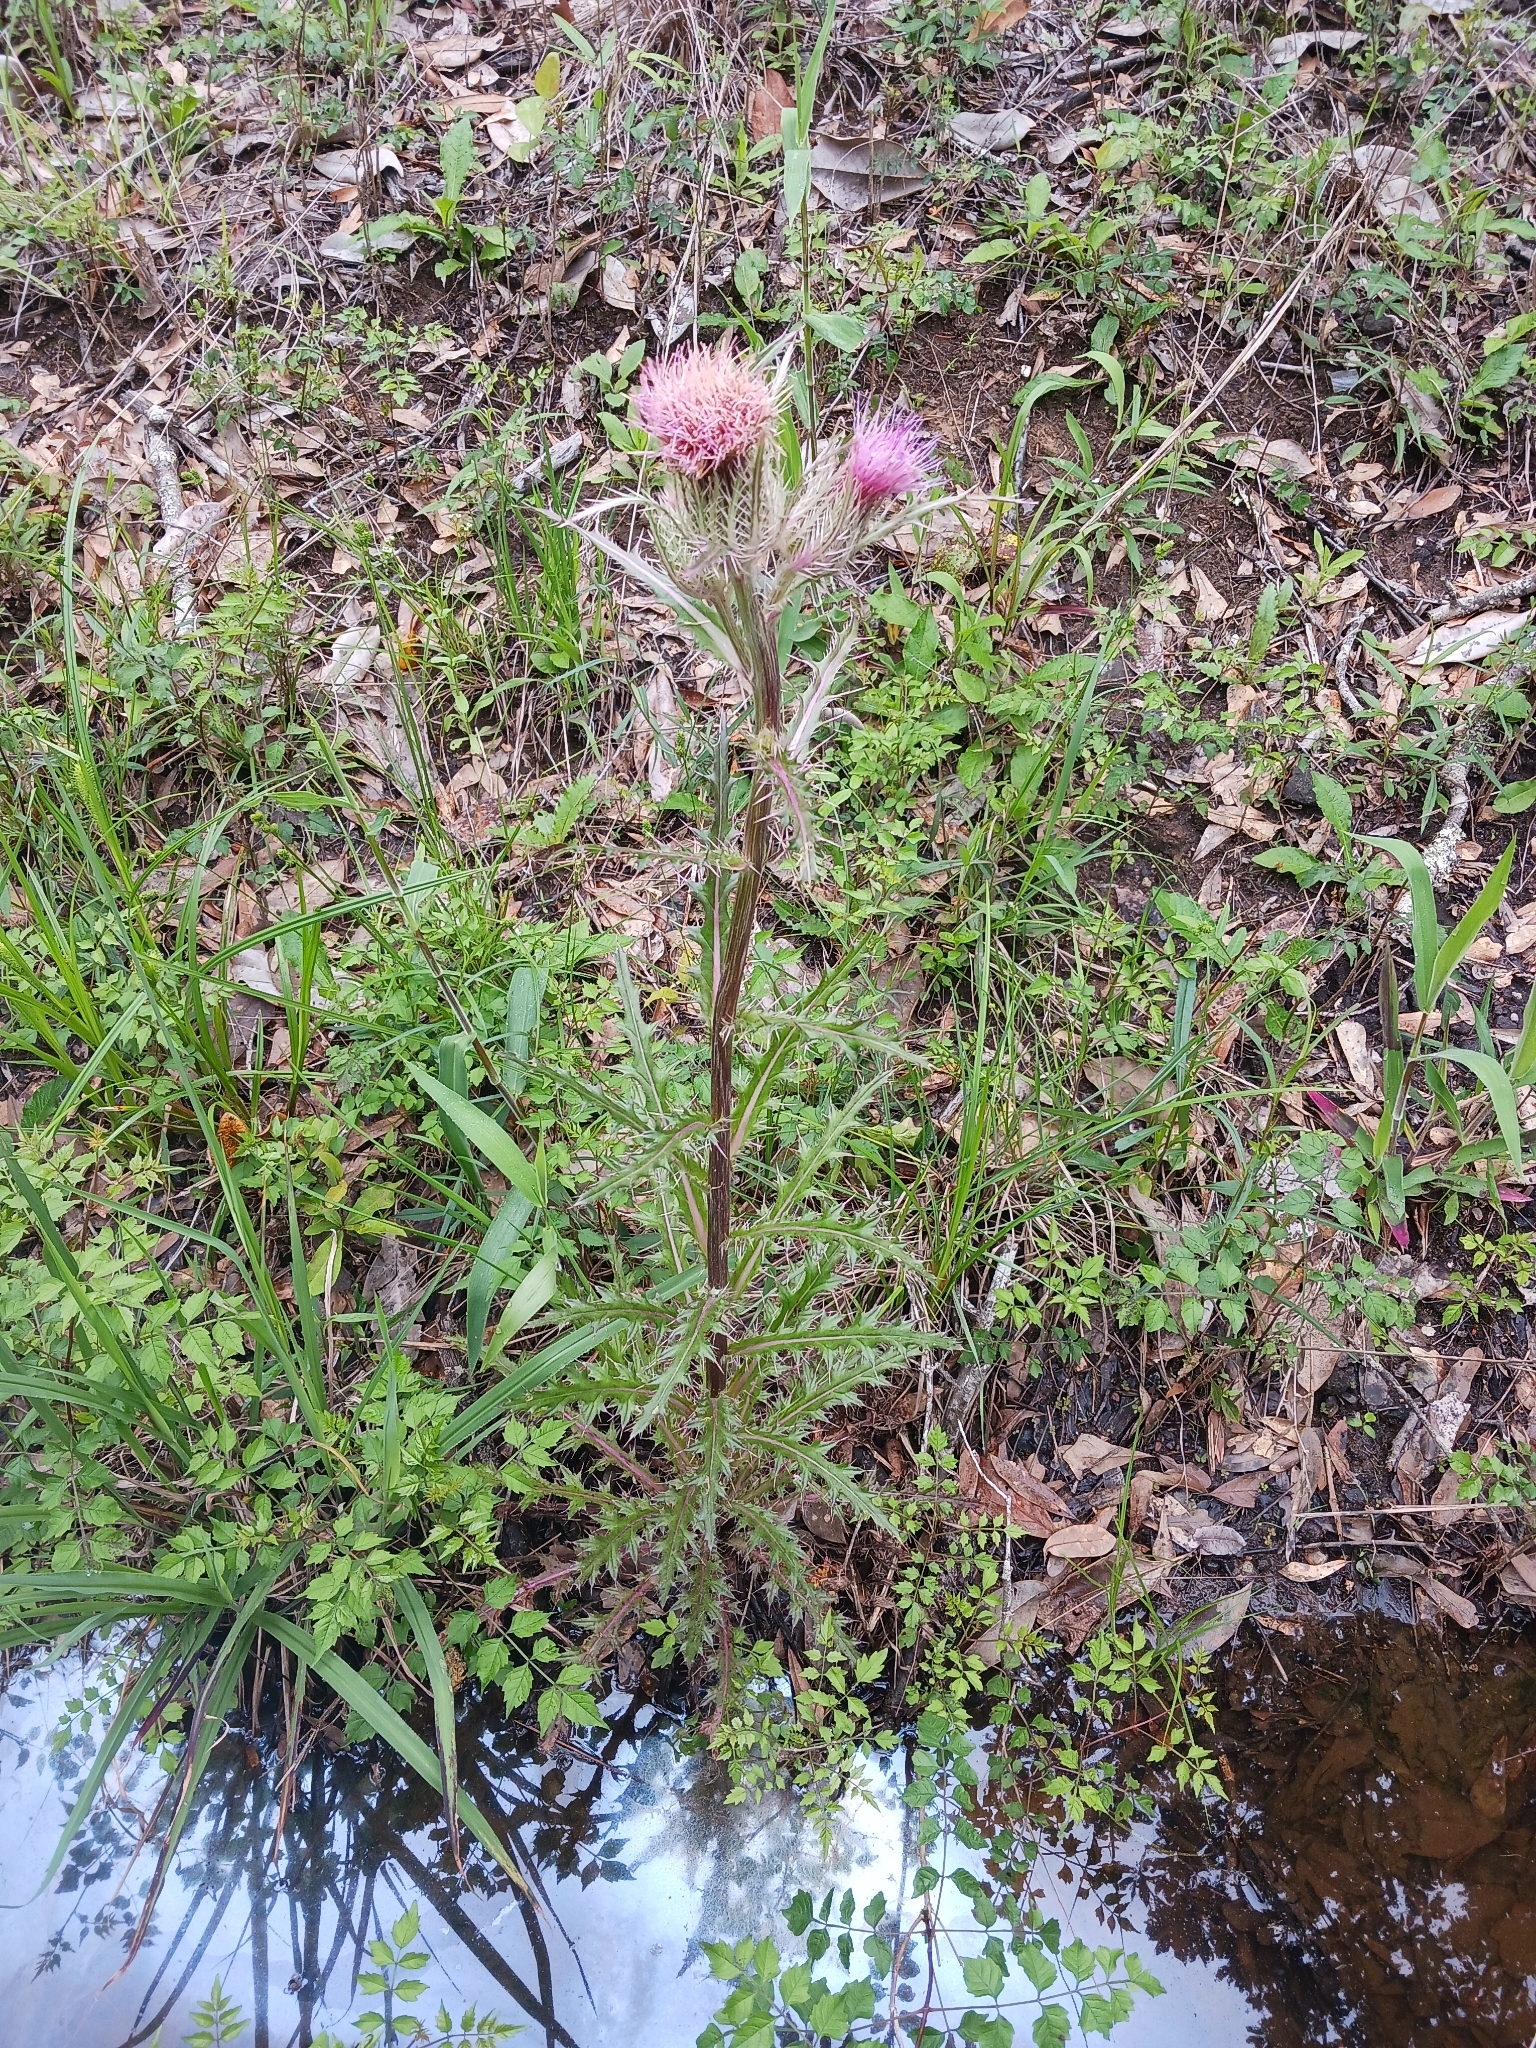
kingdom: Plantae
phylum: Tracheophyta
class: Magnoliopsida
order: Asterales
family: Asteraceae
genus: Cirsium
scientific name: Cirsium horridulum
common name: Bristly thistle
